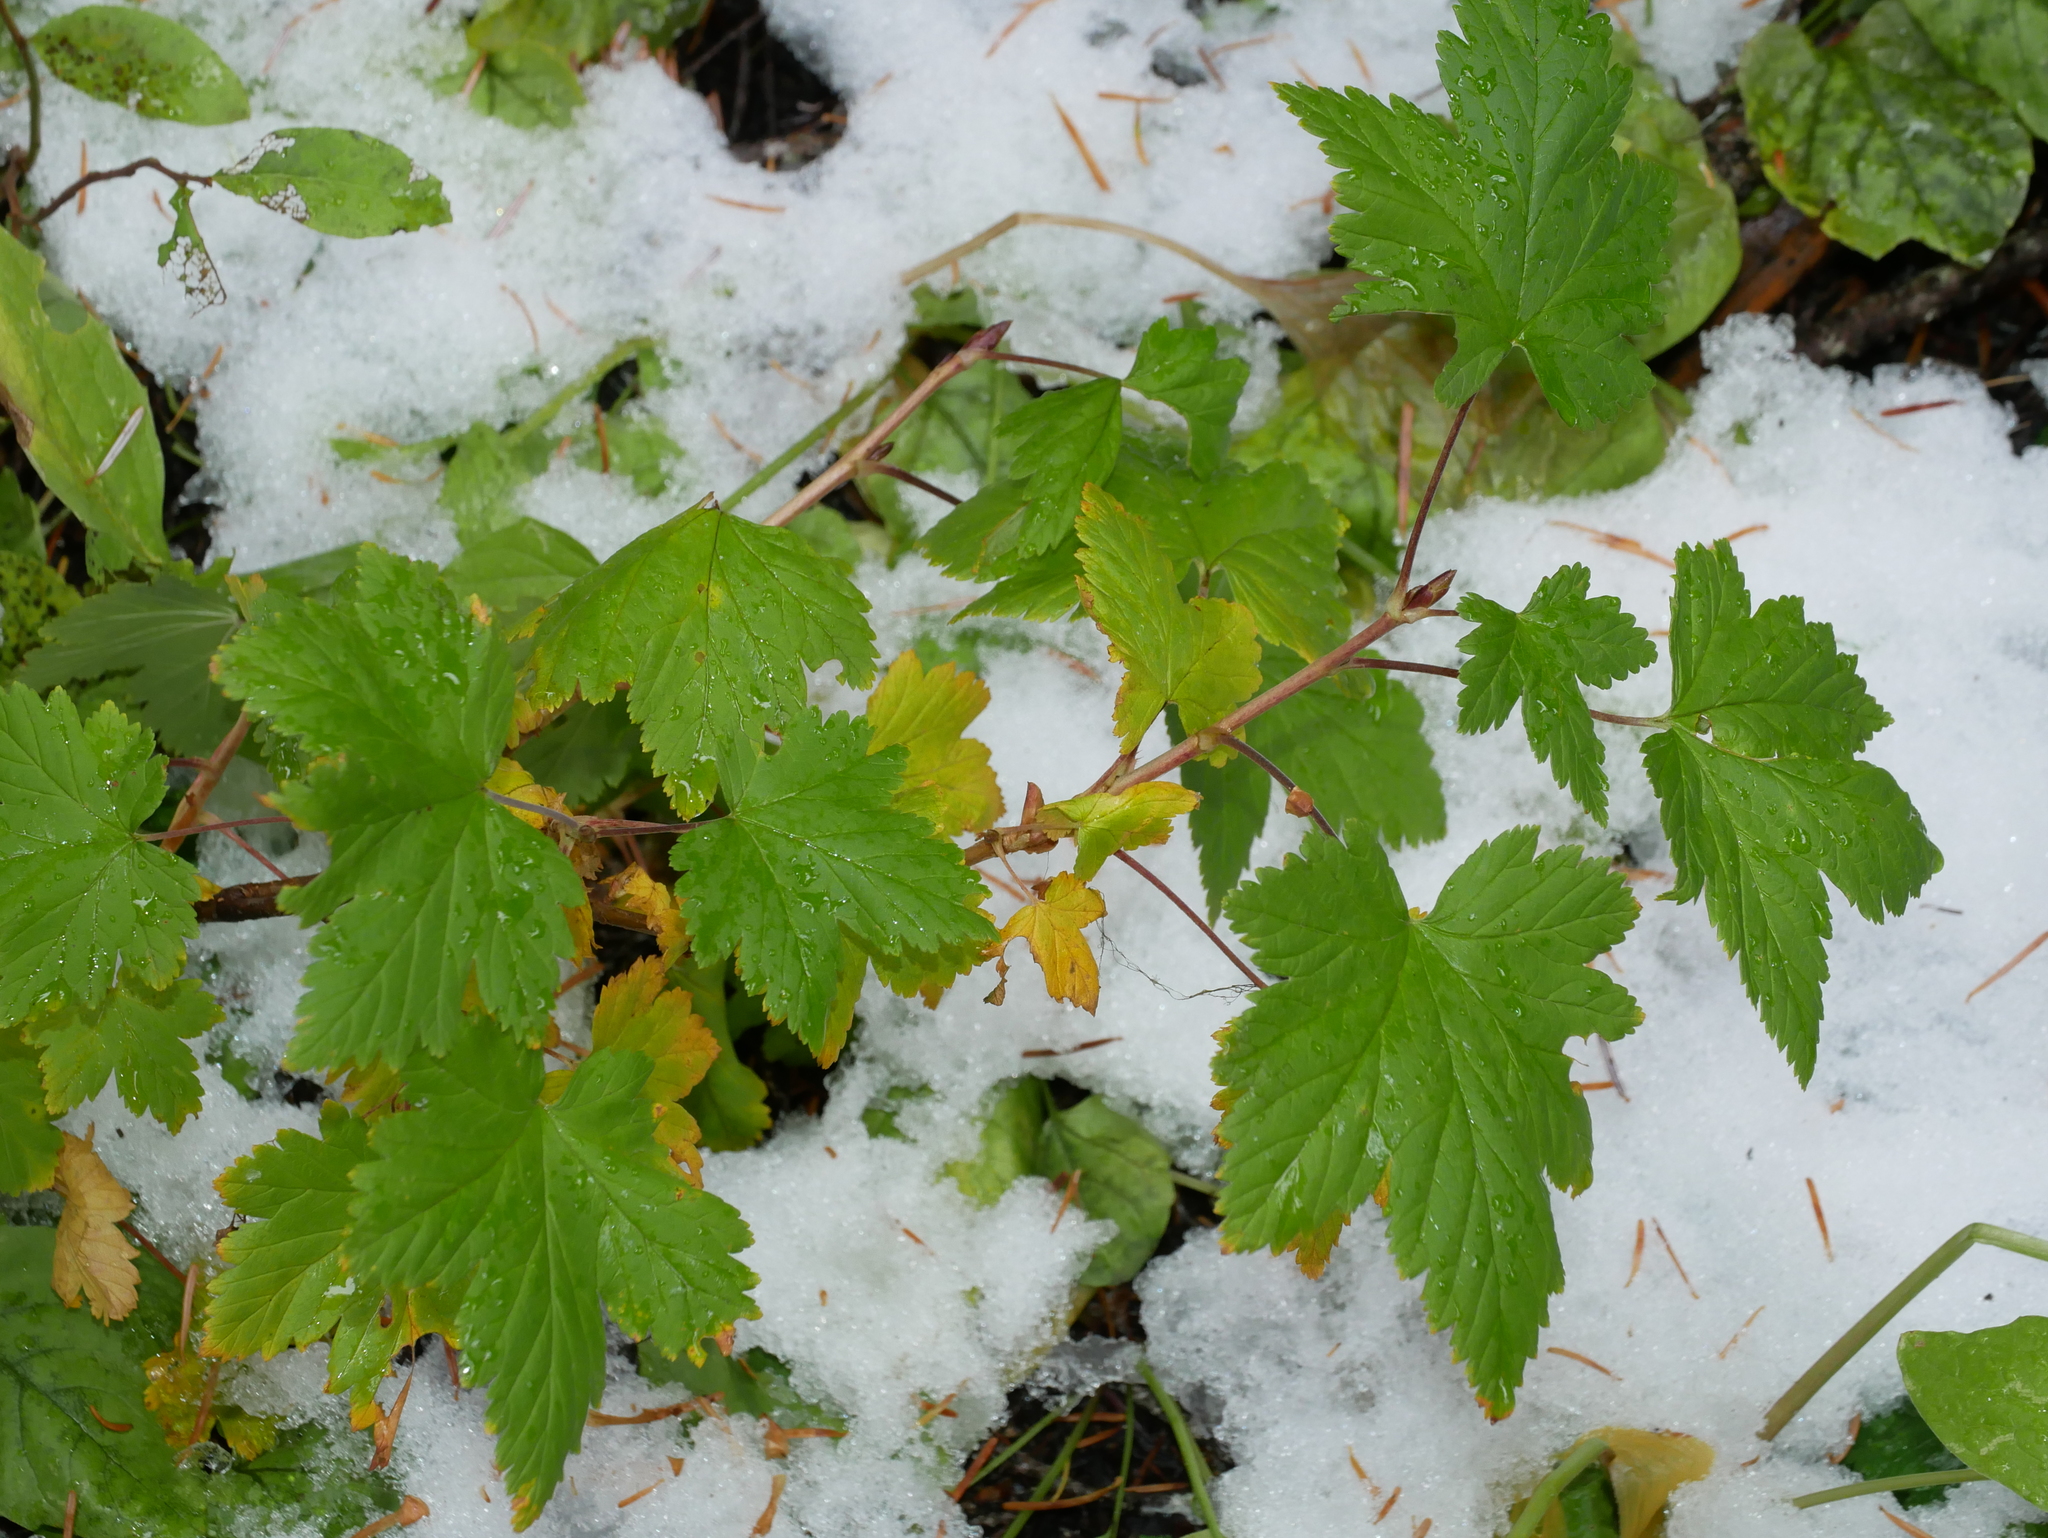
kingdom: Plantae
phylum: Tracheophyta
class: Magnoliopsida
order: Saxifragales
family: Grossulariaceae
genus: Ribes
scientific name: Ribes acerifolium
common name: Maple-leaved black currant
